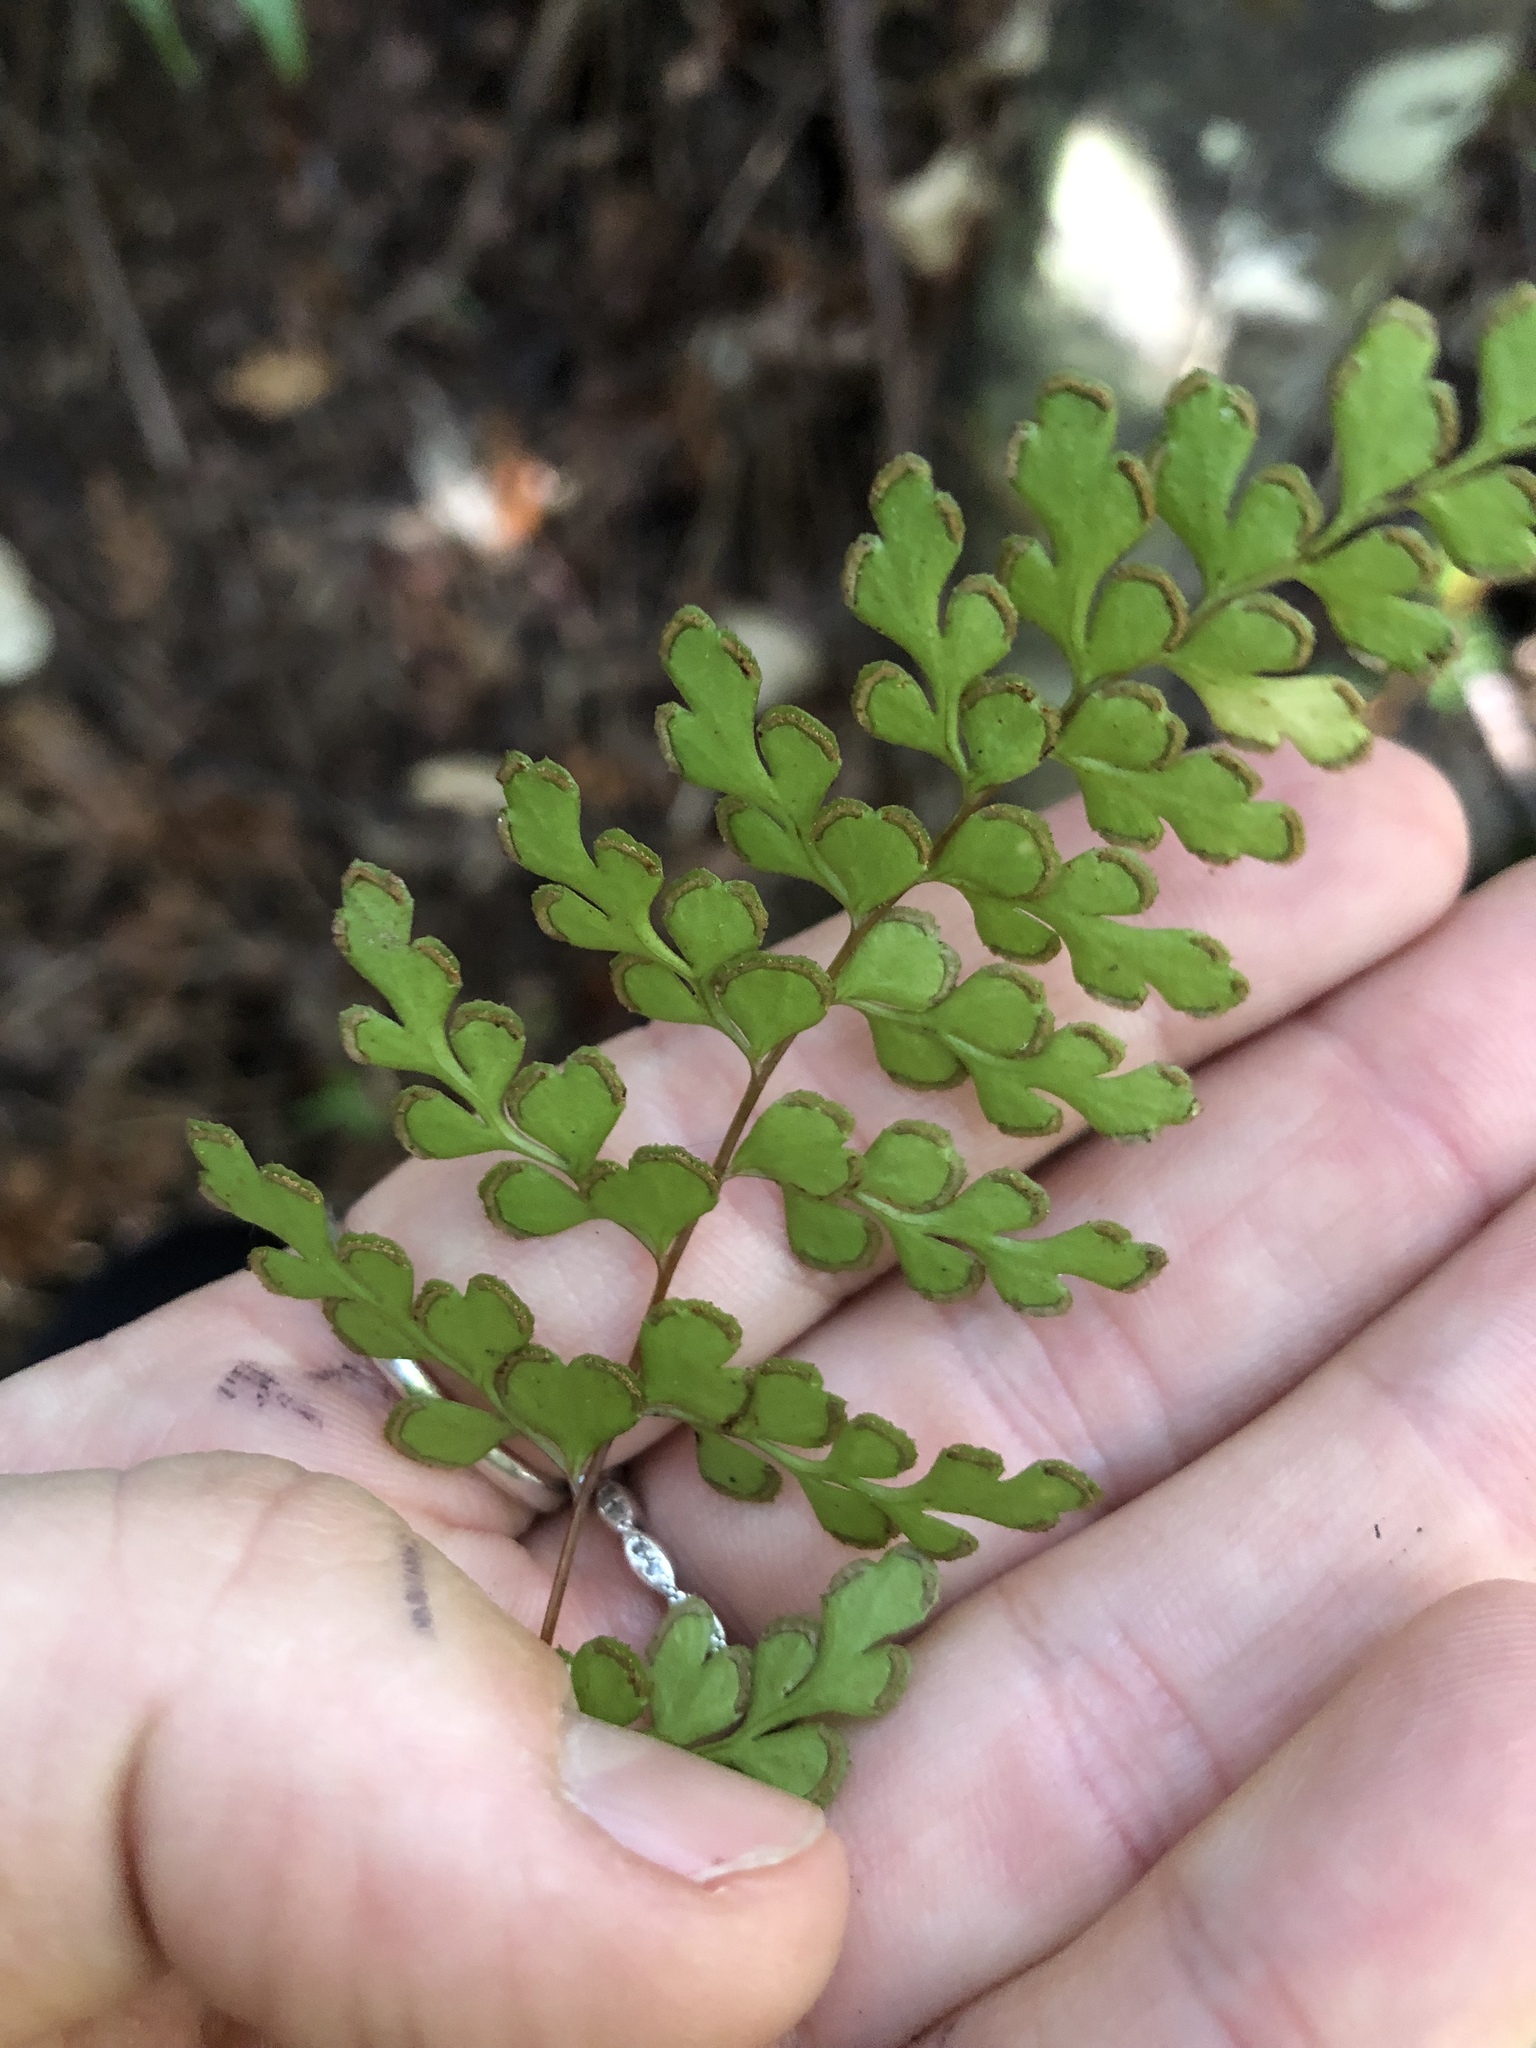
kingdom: Plantae
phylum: Tracheophyta
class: Polypodiopsida
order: Polypodiales
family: Lindsaeaceae
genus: Lindsaea
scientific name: Lindsaea trichomanoides
